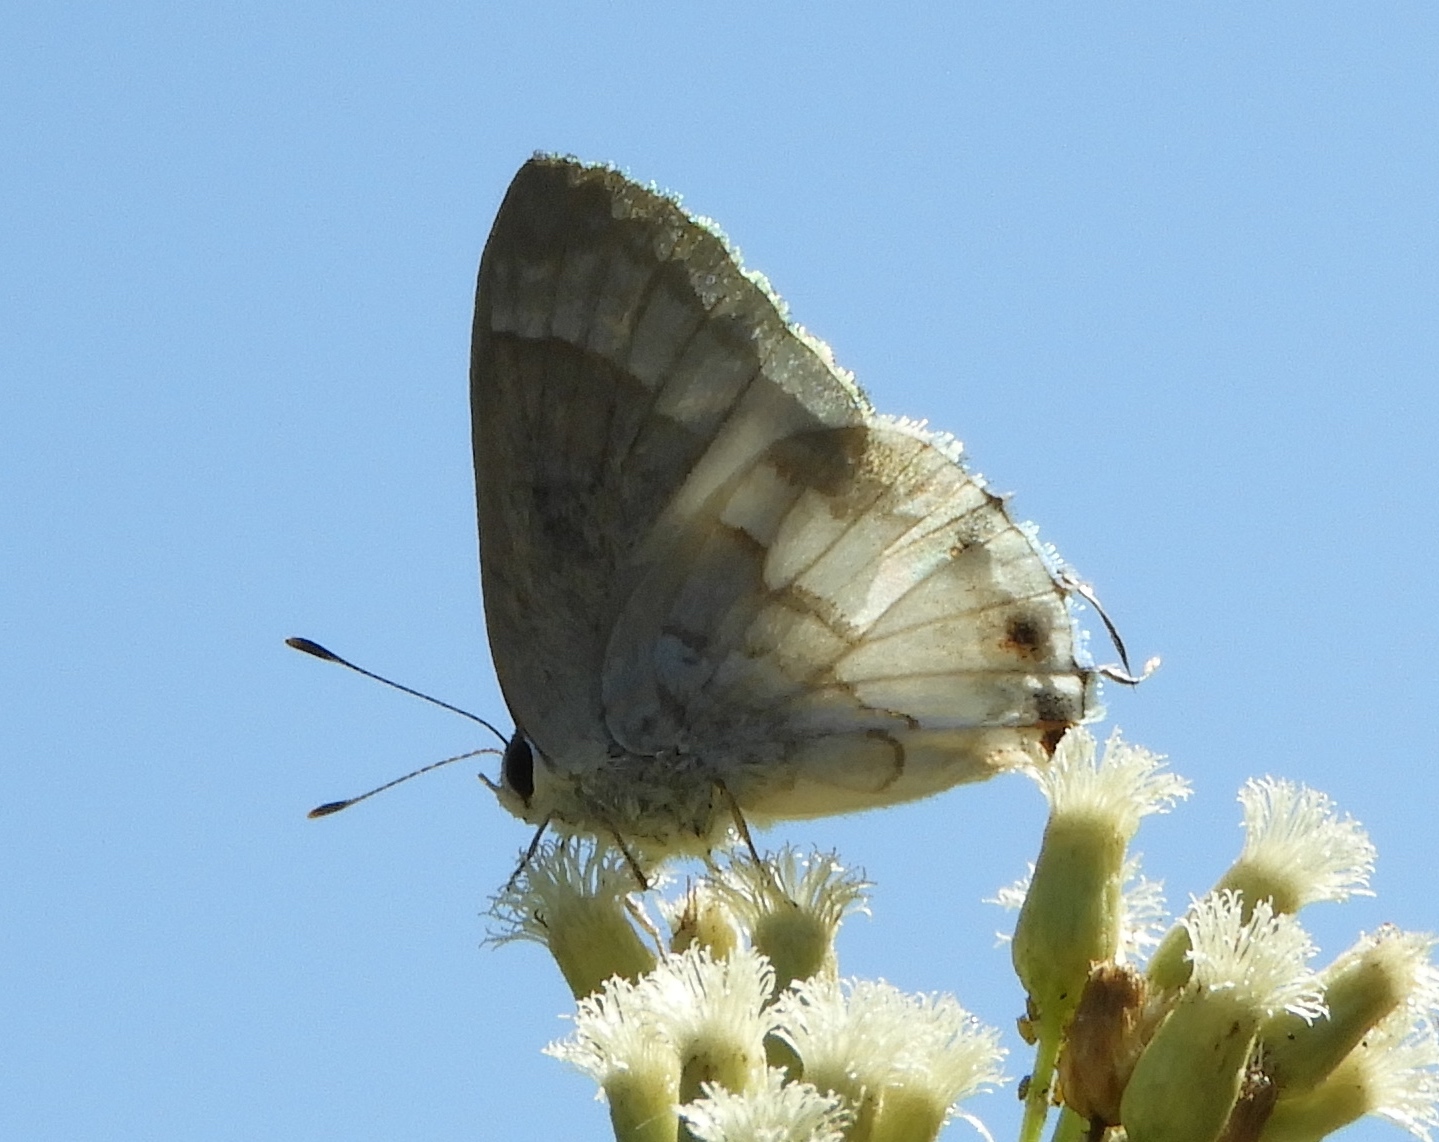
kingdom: Animalia
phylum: Arthropoda
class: Insecta
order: Lepidoptera
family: Lycaenidae
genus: Strymon
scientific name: Strymon albata
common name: White scrub-hairstreak
